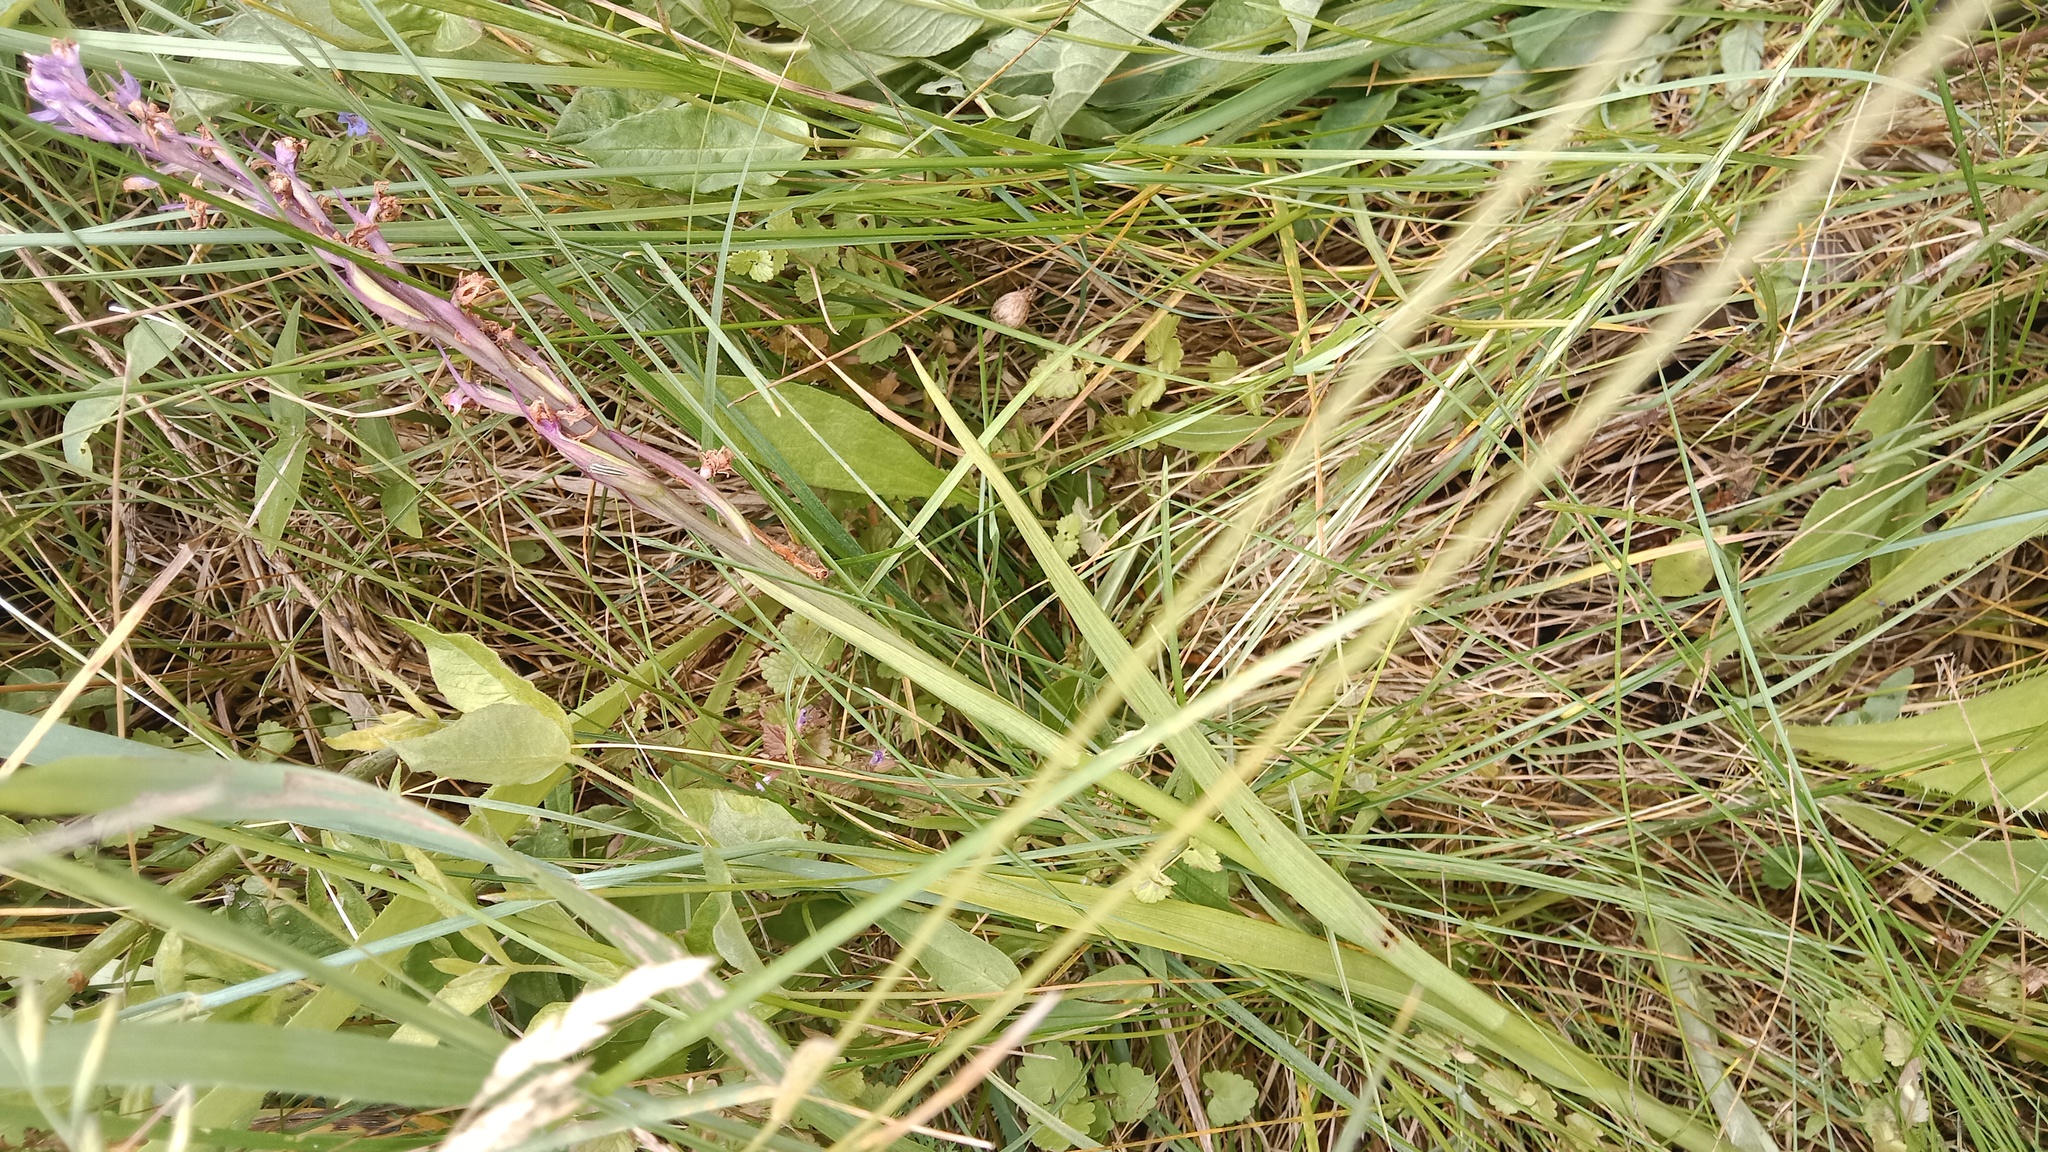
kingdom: Plantae
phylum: Tracheophyta
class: Liliopsida
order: Asparagales
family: Orchidaceae
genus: Anacamptis
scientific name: Anacamptis palustris
